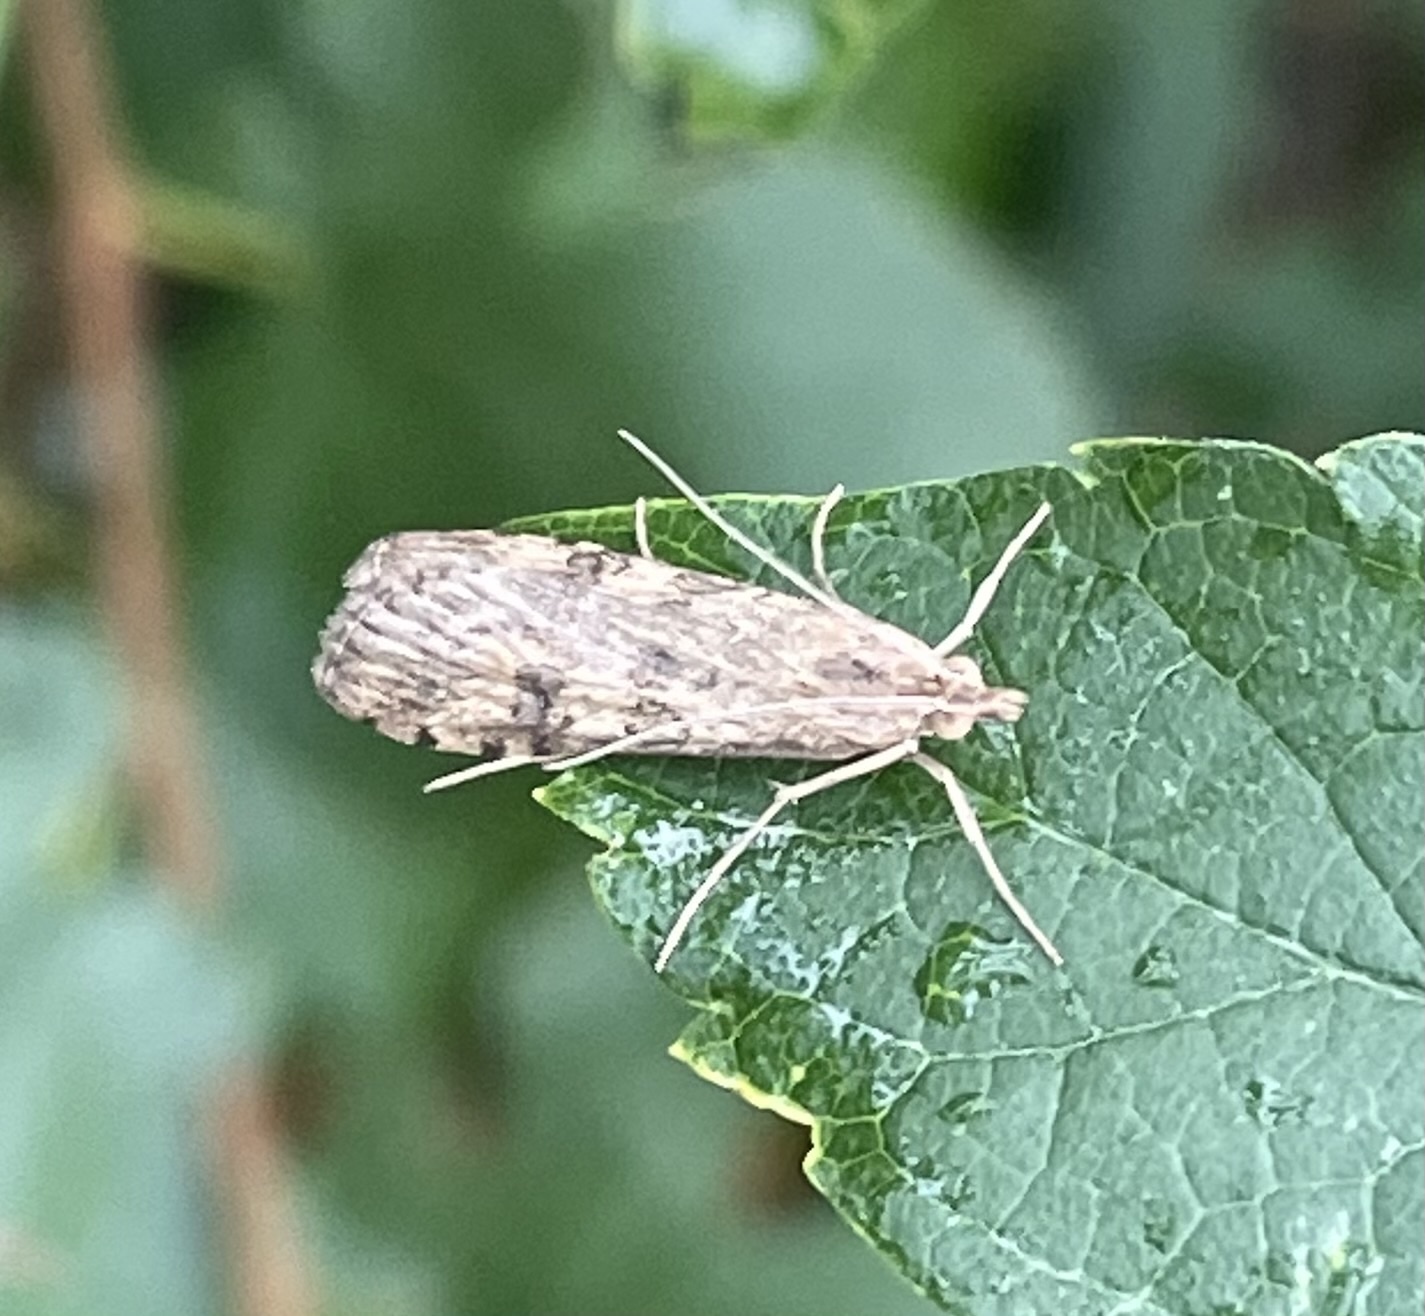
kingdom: Animalia
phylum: Arthropoda
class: Insecta
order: Lepidoptera
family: Crambidae
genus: Nomophila
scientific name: Nomophila nearctica
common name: American rush veneer
